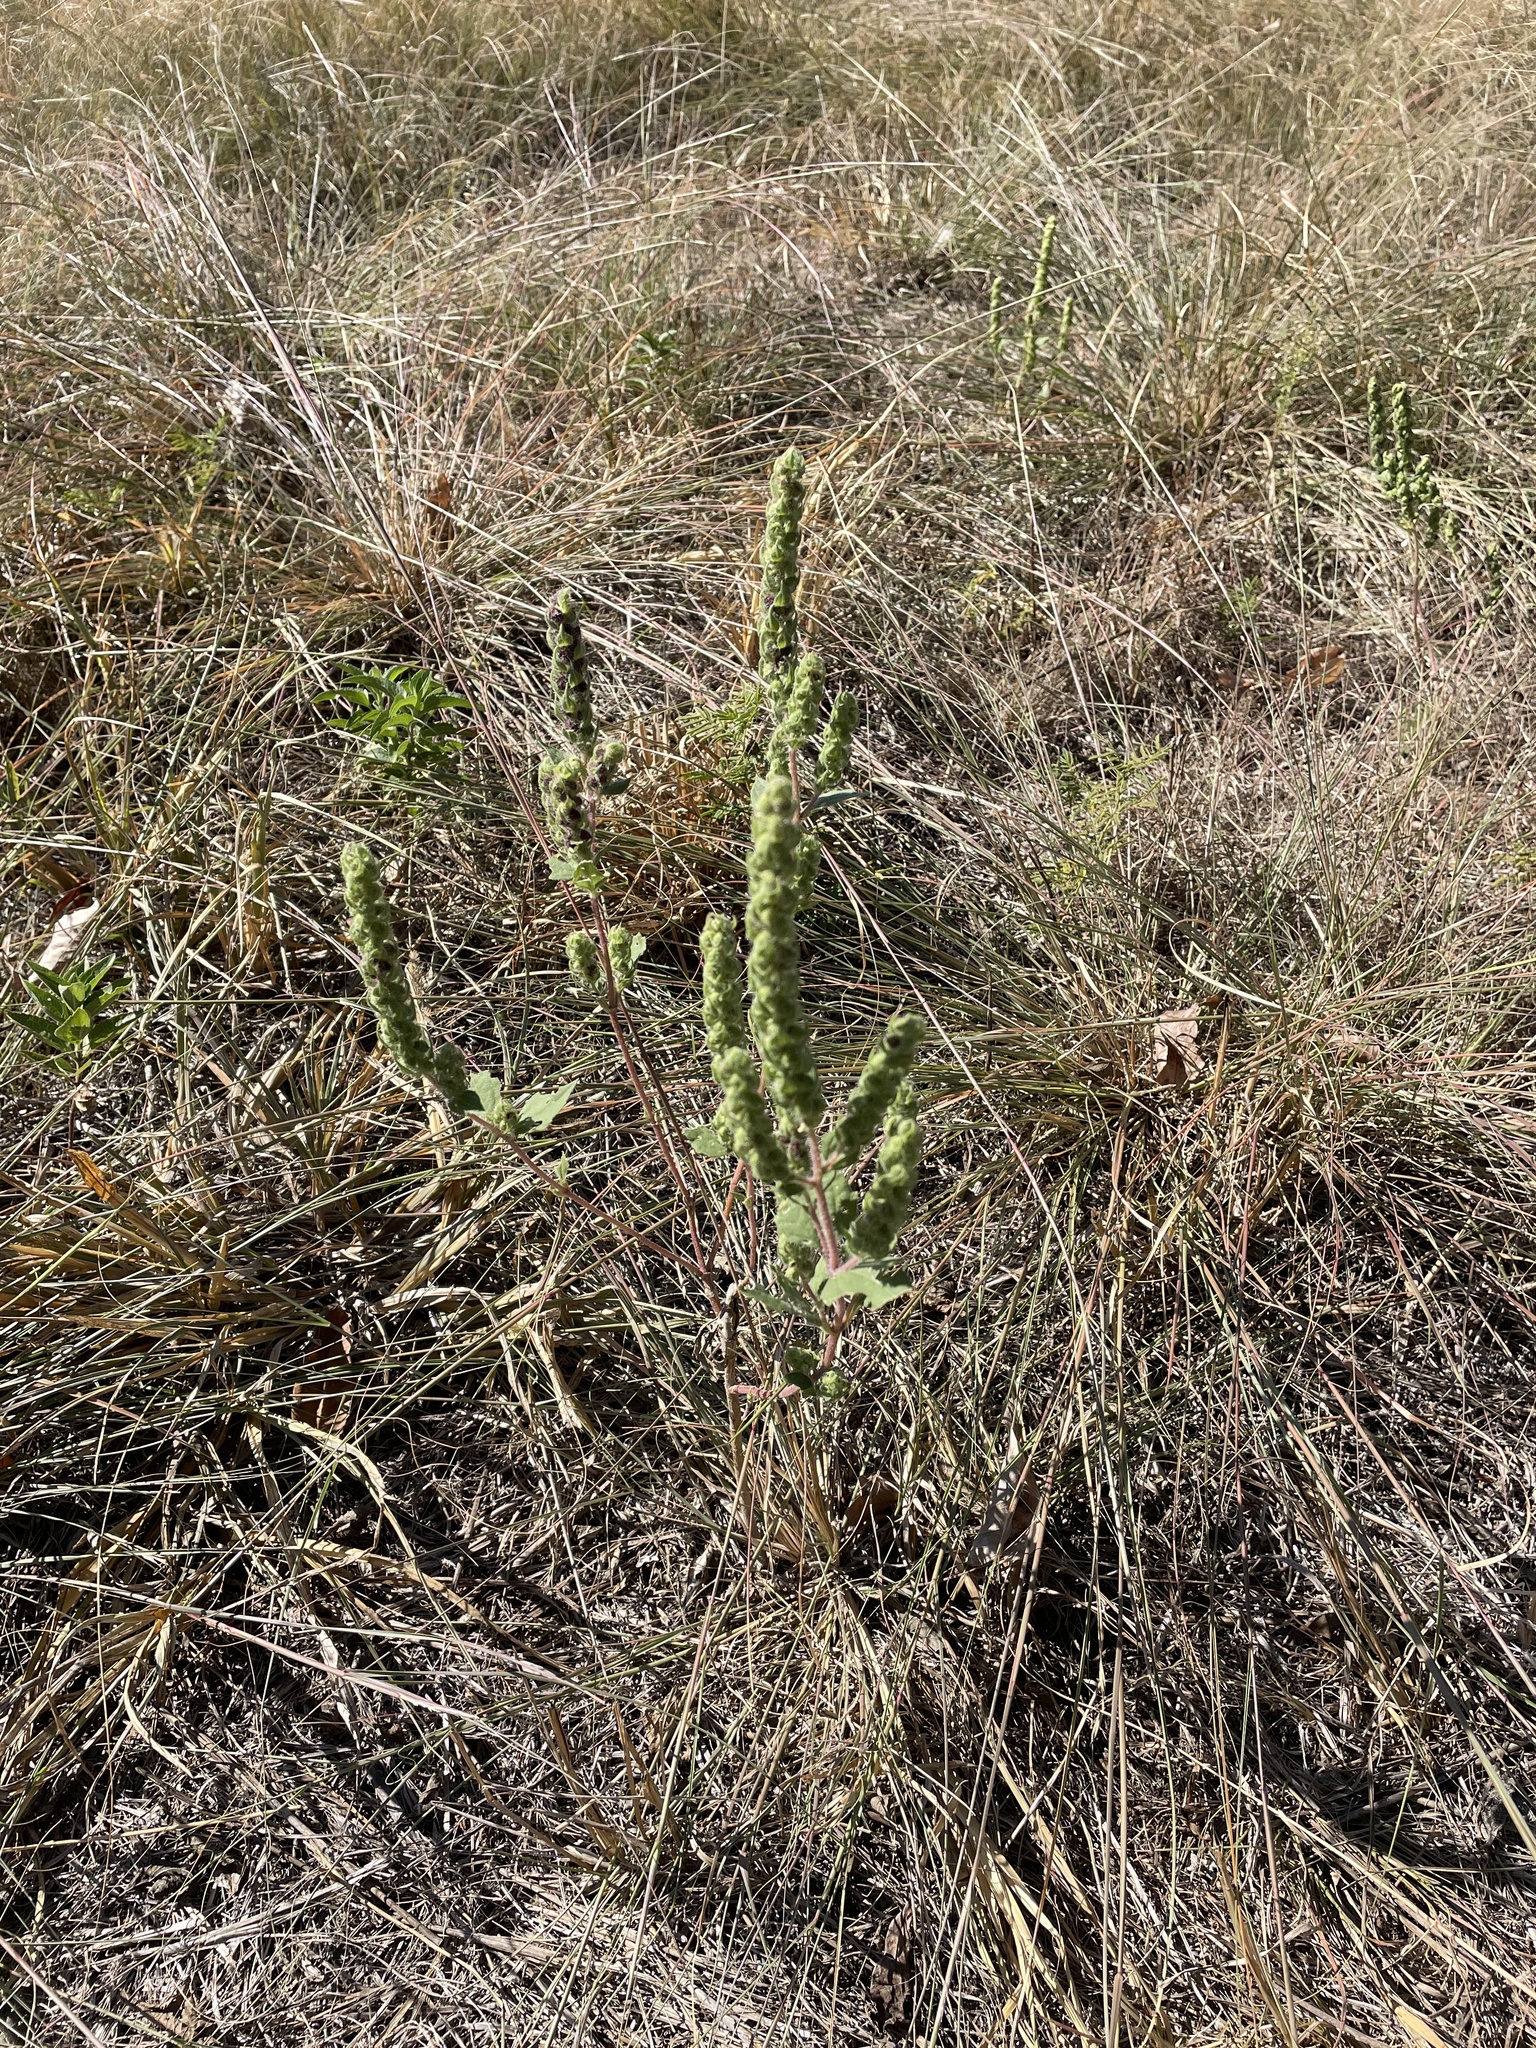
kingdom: Plantae
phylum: Tracheophyta
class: Magnoliopsida
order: Asterales
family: Asteraceae
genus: Iva
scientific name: Iva annua
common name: Marsh-elder
